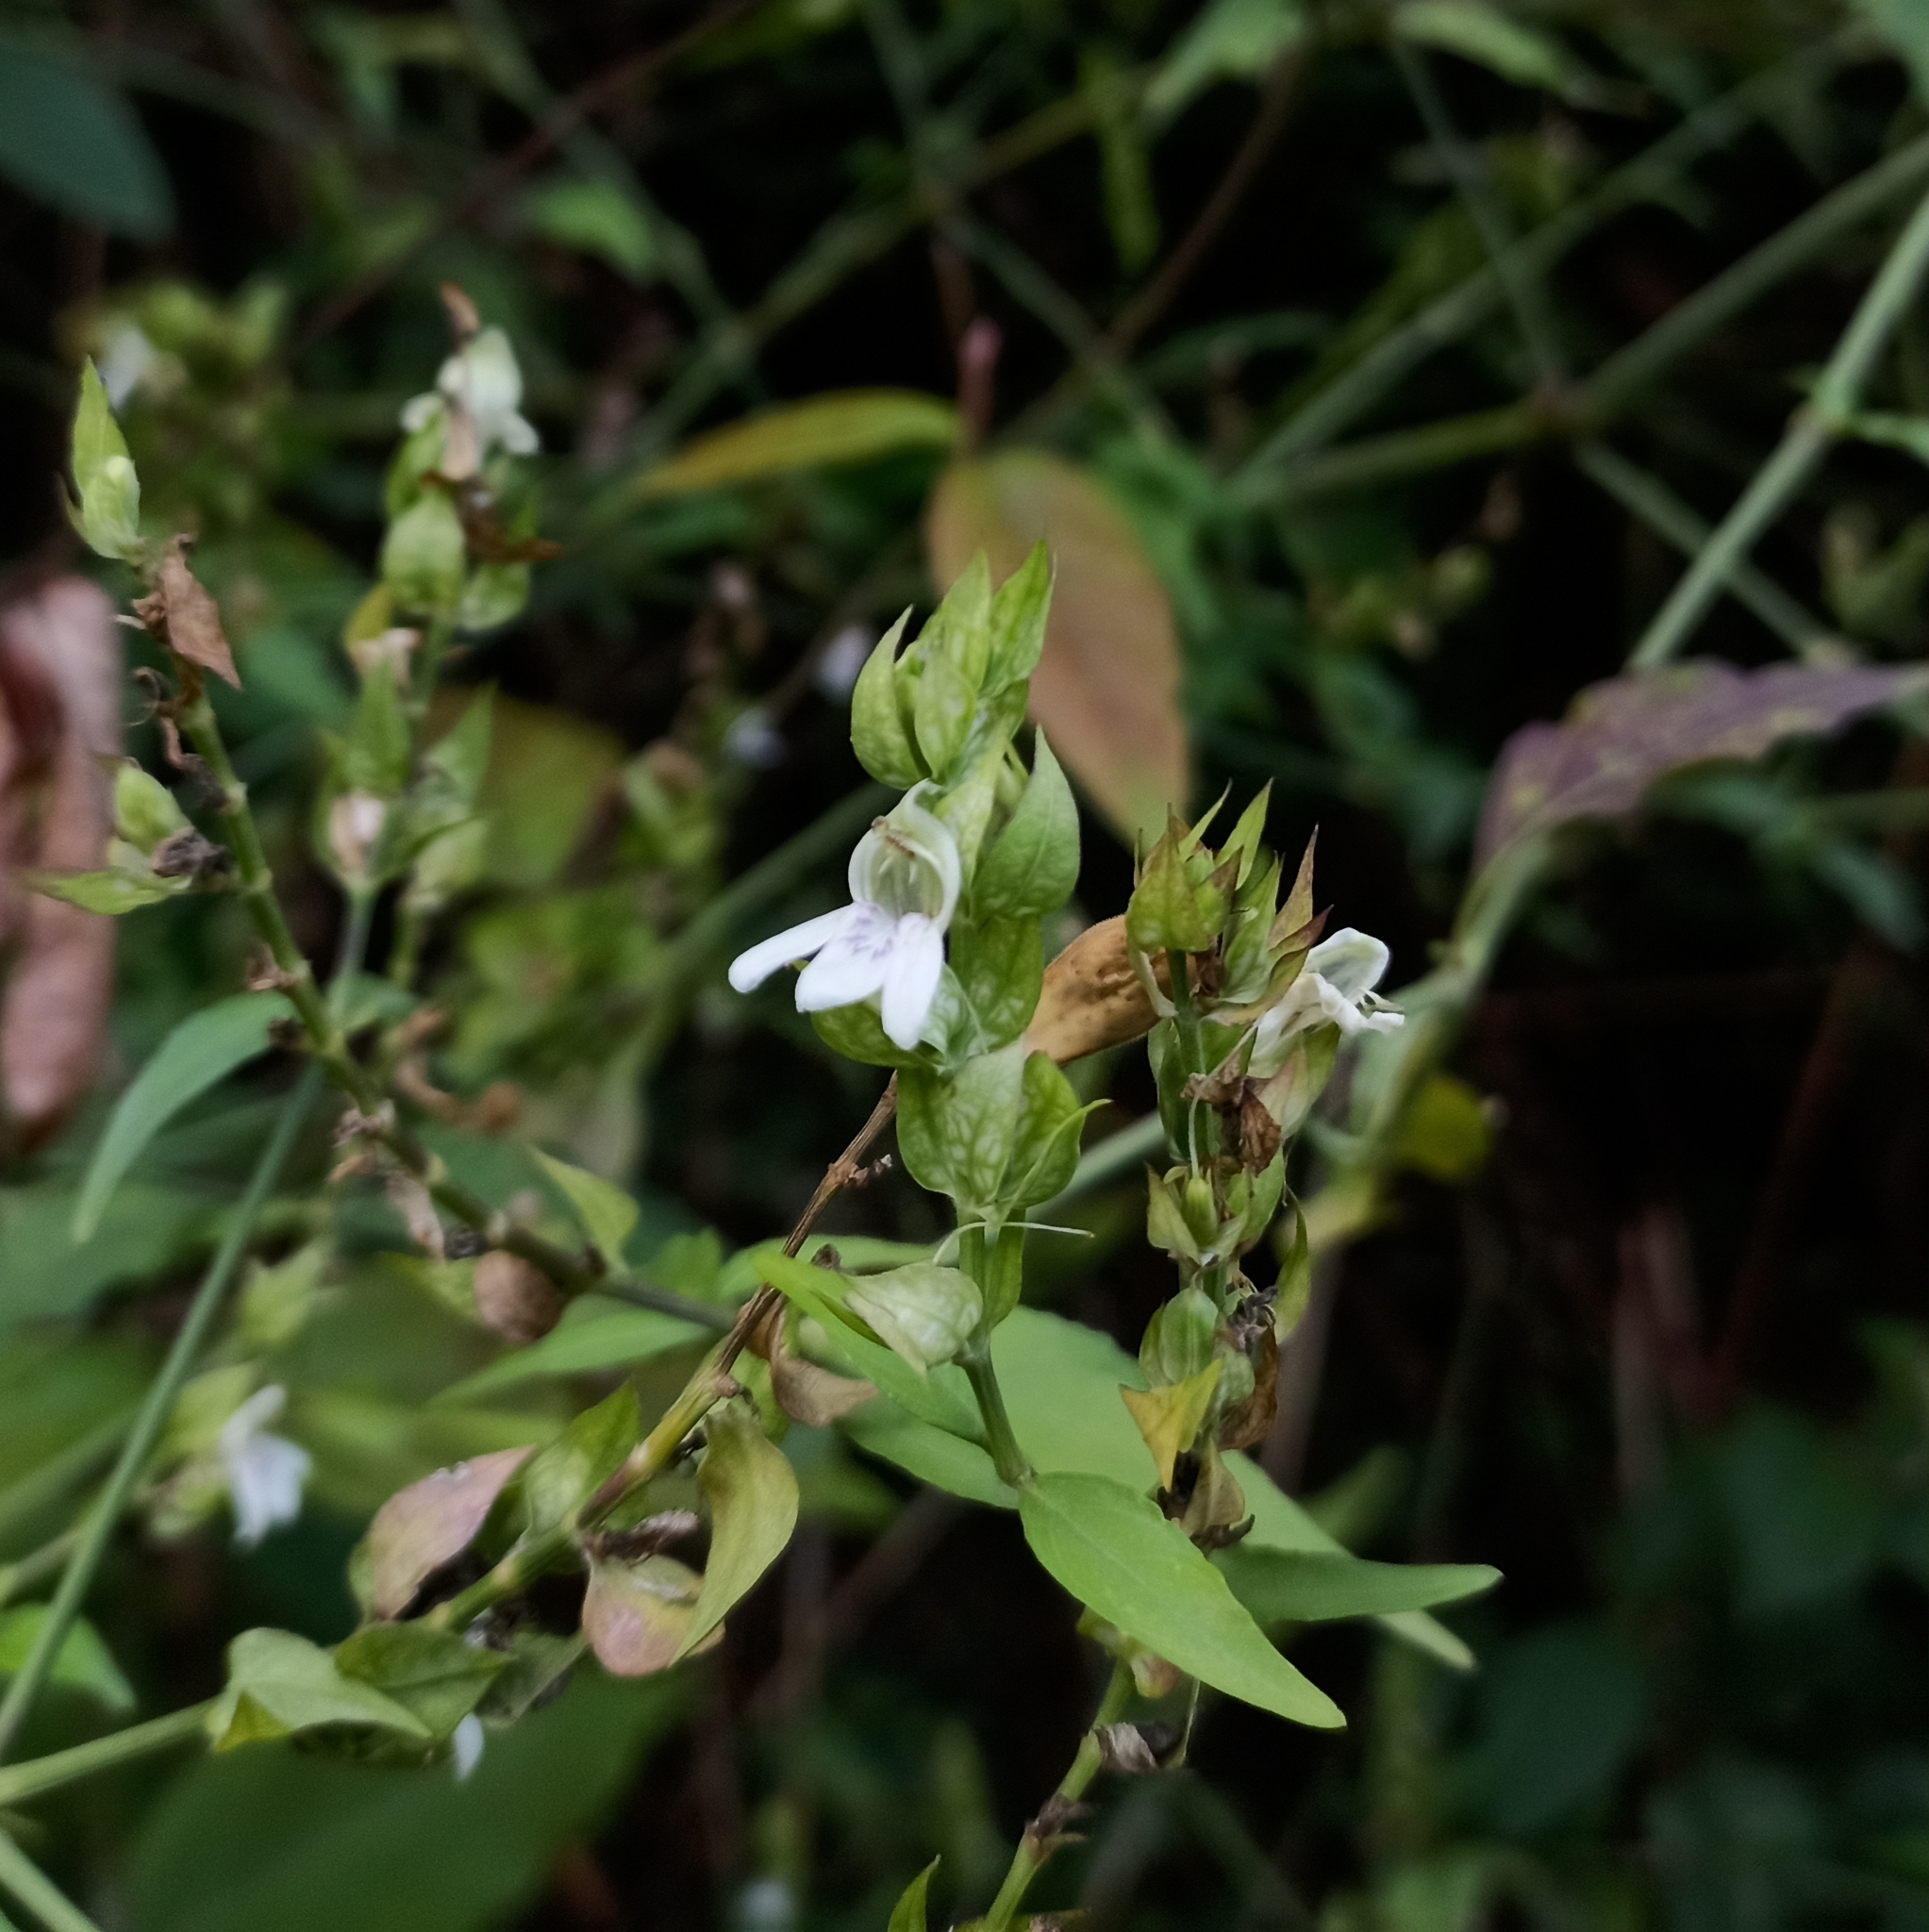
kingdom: Plantae
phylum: Tracheophyta
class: Magnoliopsida
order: Lamiales
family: Acanthaceae
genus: Justicia
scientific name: Justicia betonica
